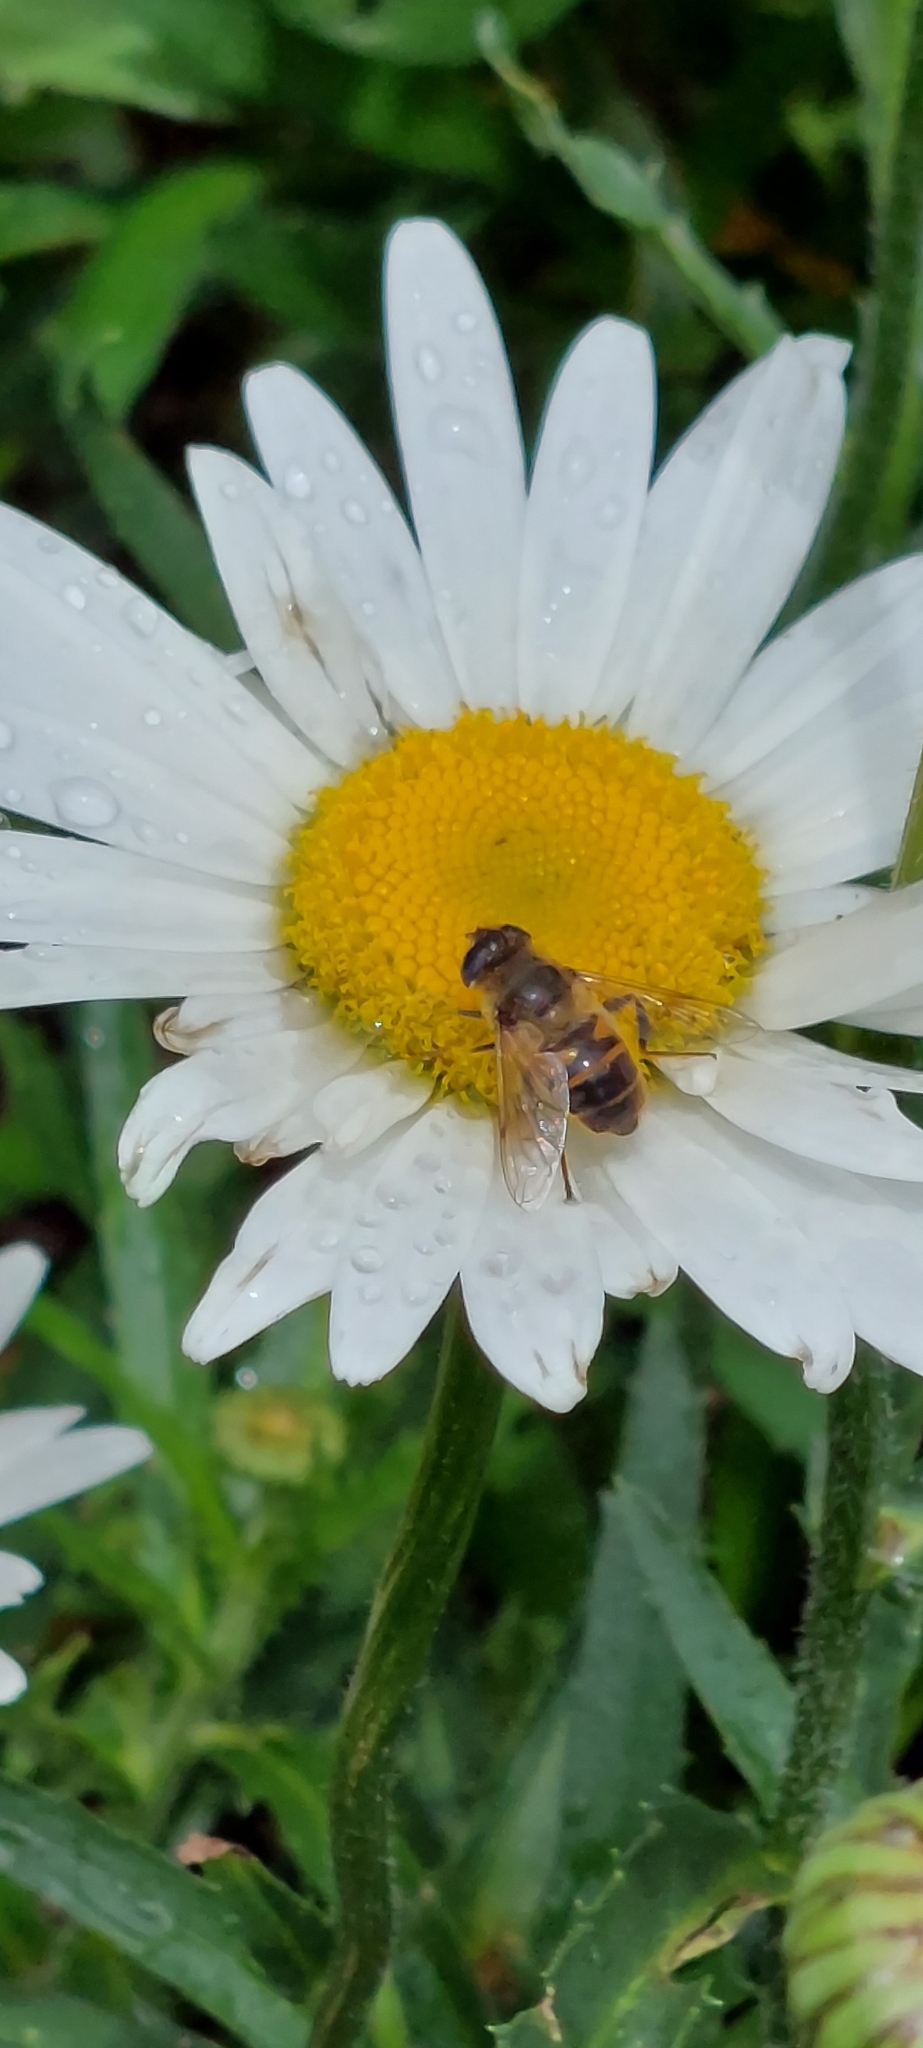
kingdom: Animalia
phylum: Arthropoda
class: Insecta
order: Diptera
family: Syrphidae
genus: Eristalis
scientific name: Eristalis tenax
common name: Drone fly
